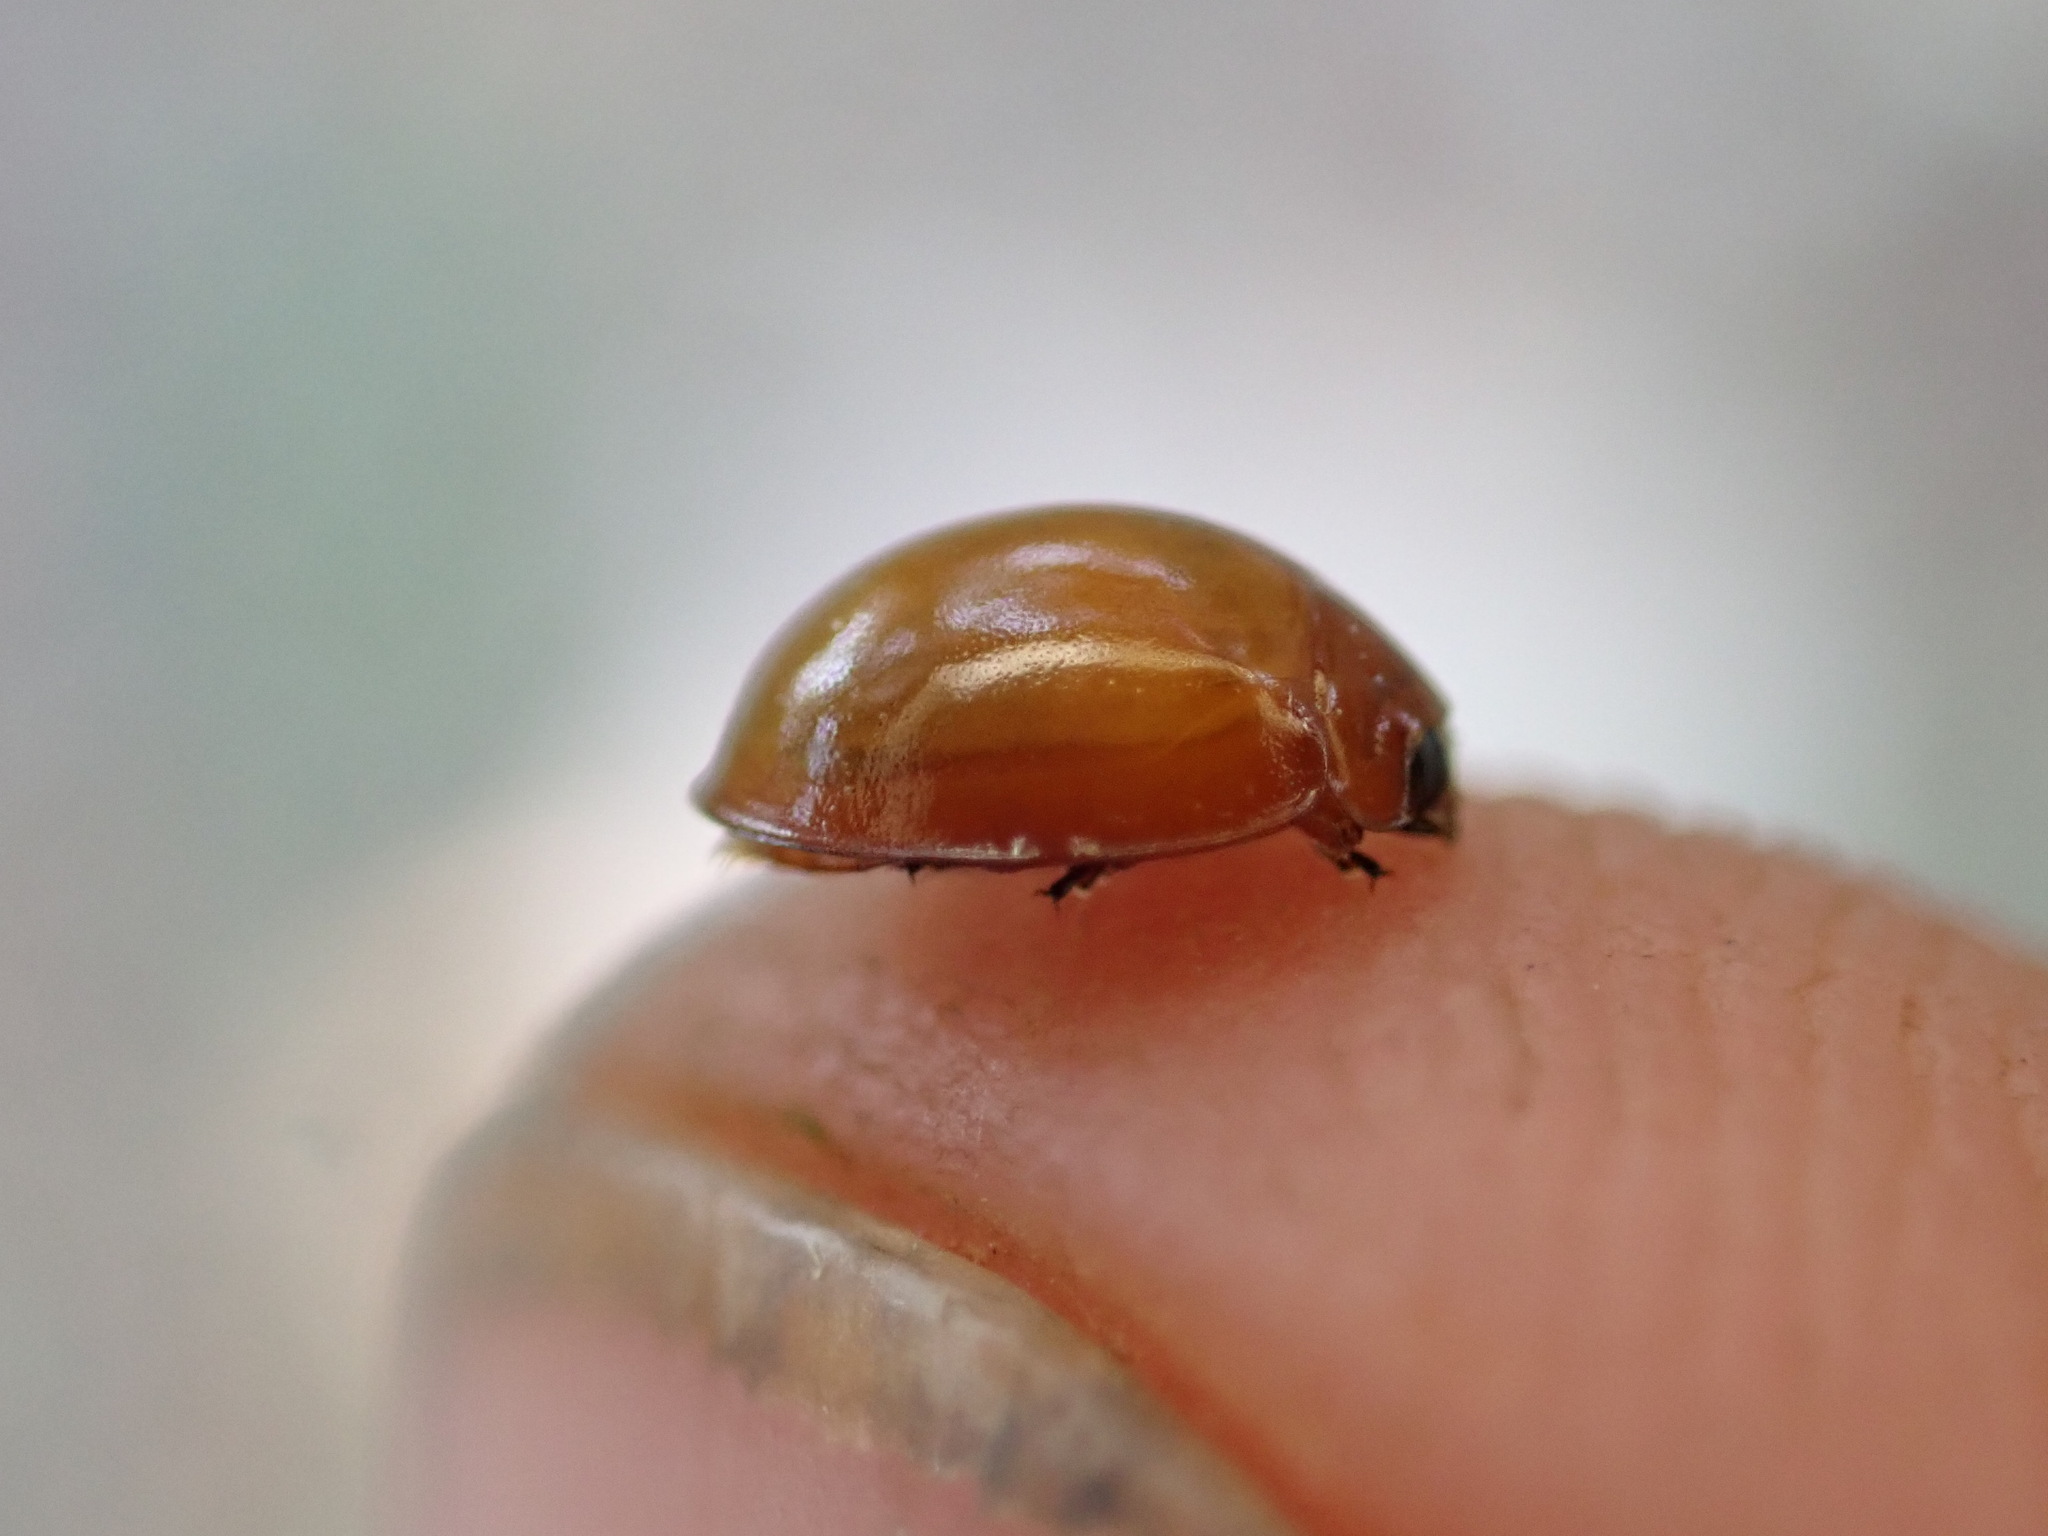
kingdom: Animalia
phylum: Arthropoda
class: Insecta
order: Coleoptera
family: Coccinellidae
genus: Brumus
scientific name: Brumus quadripustulatus
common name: Ladybird beetle
